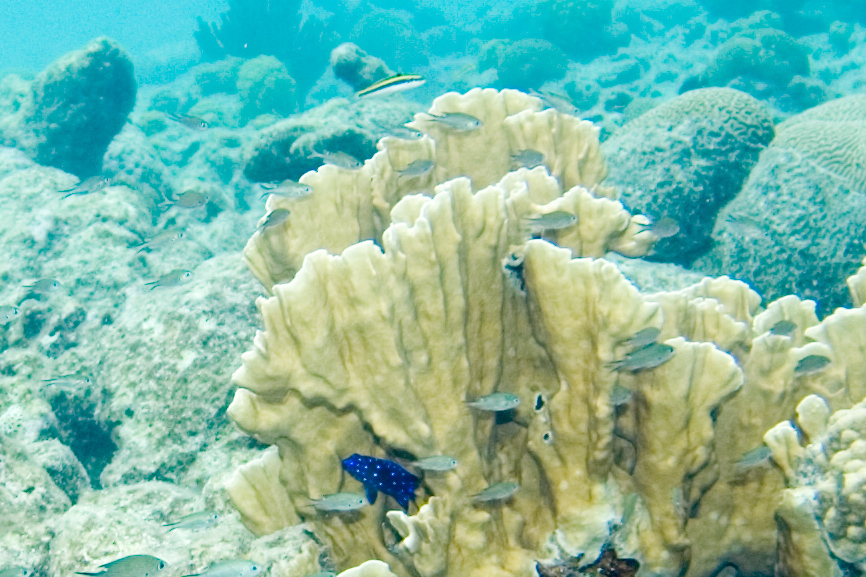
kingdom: Animalia
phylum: Chordata
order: Perciformes
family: Pomacentridae
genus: Microspathodon
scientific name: Microspathodon chrysurus
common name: Yellowtail damselfish
